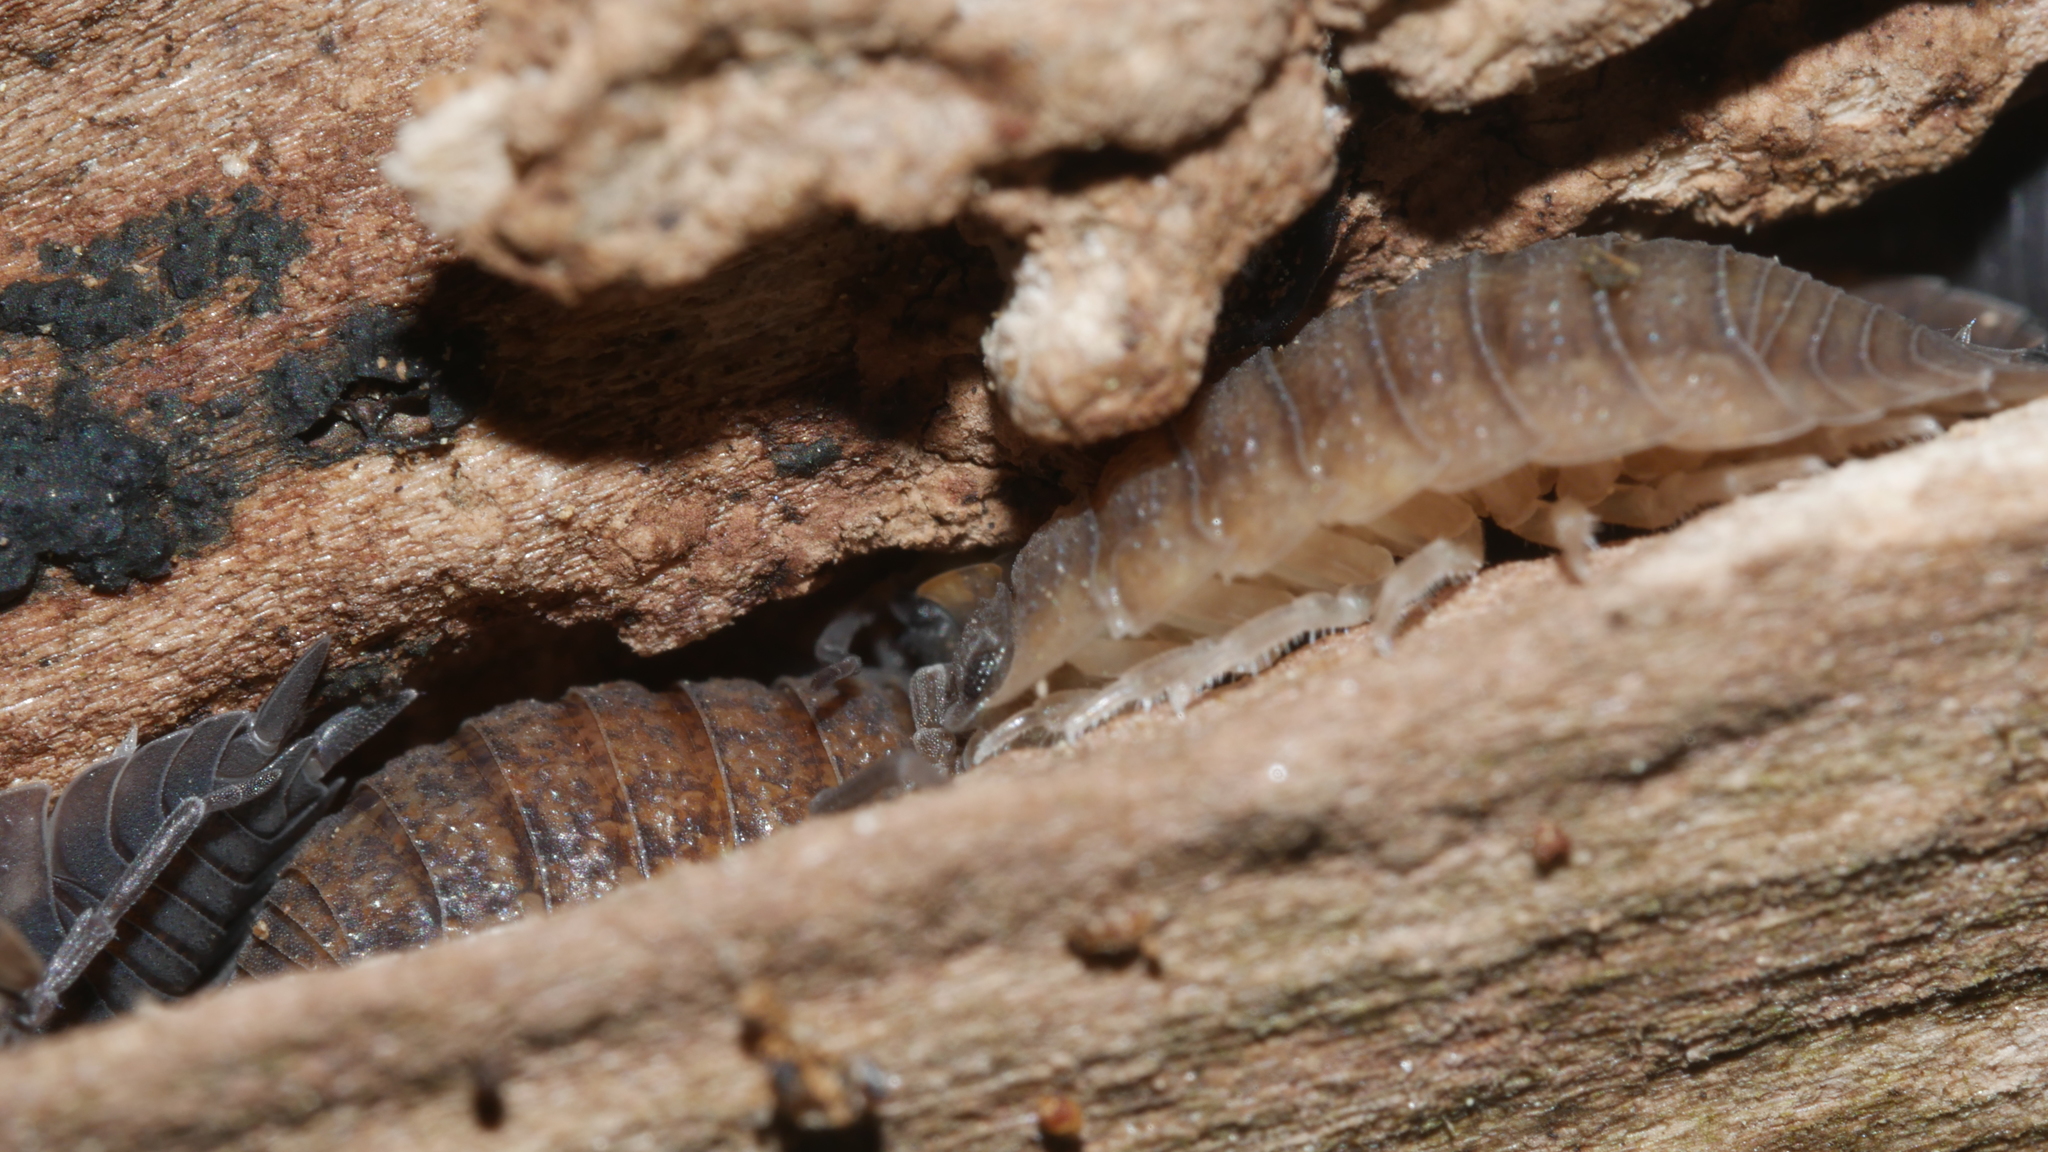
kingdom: Animalia
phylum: Arthropoda
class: Malacostraca
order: Isopoda
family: Porcellionidae
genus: Porcellio
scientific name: Porcellio scaber
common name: Common rough woodlouse
